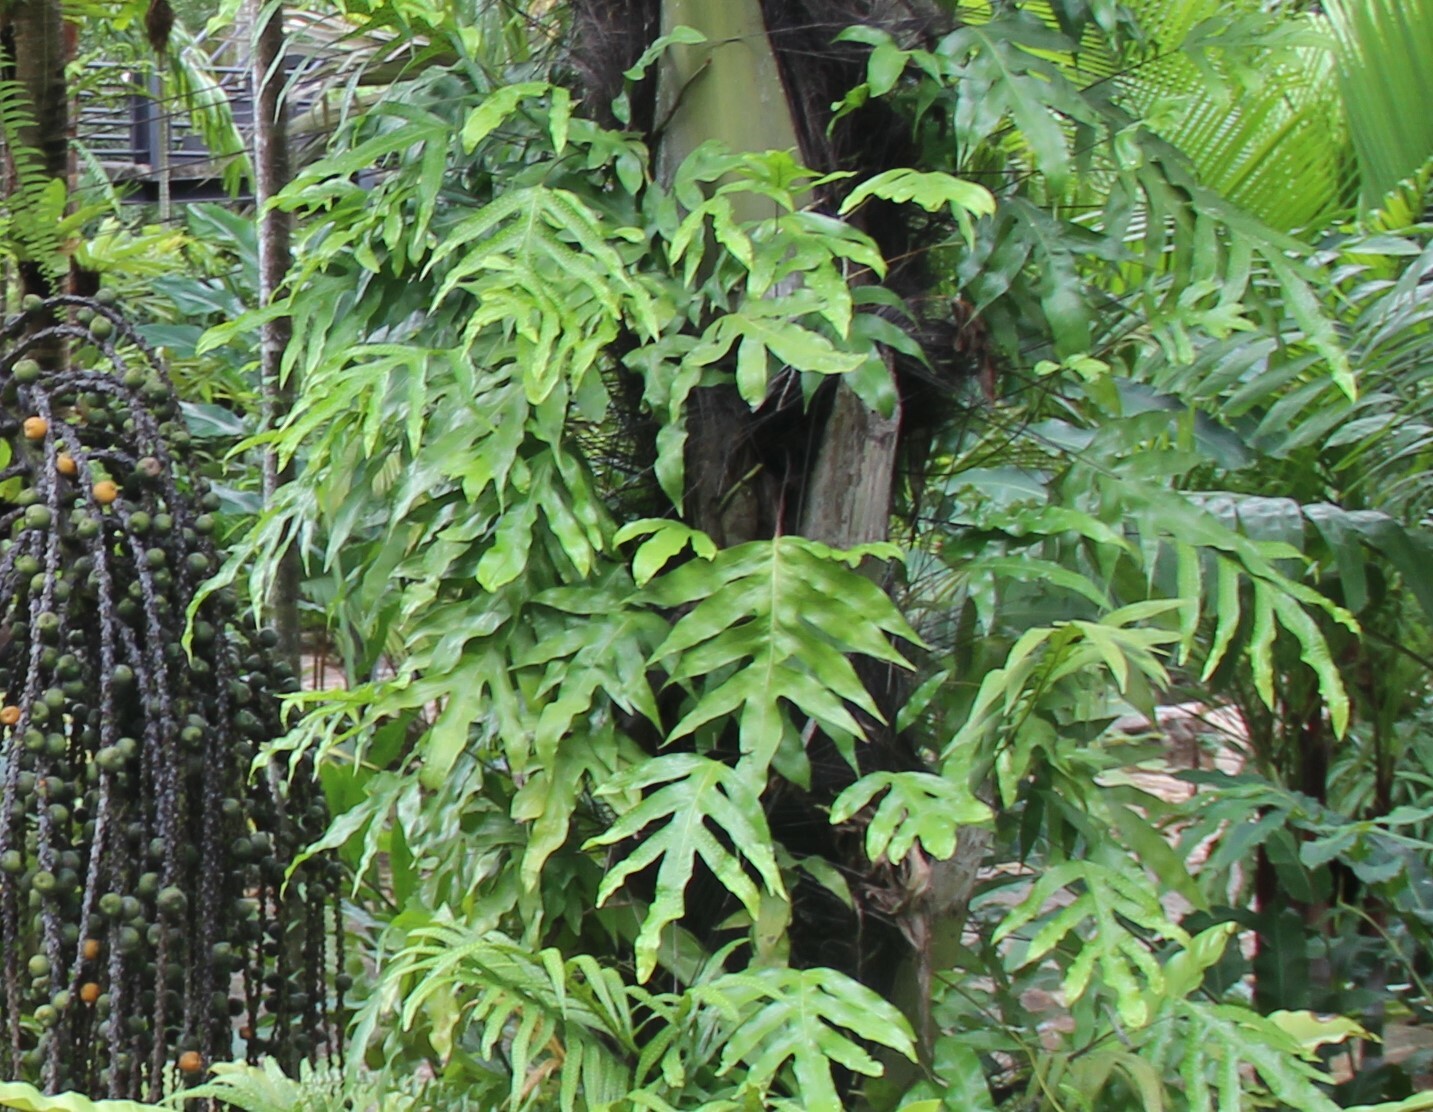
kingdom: Plantae
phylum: Tracheophyta
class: Polypodiopsida
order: Polypodiales
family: Polypodiaceae
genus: Microsorum
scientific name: Microsorum grossum
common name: Musk fern
